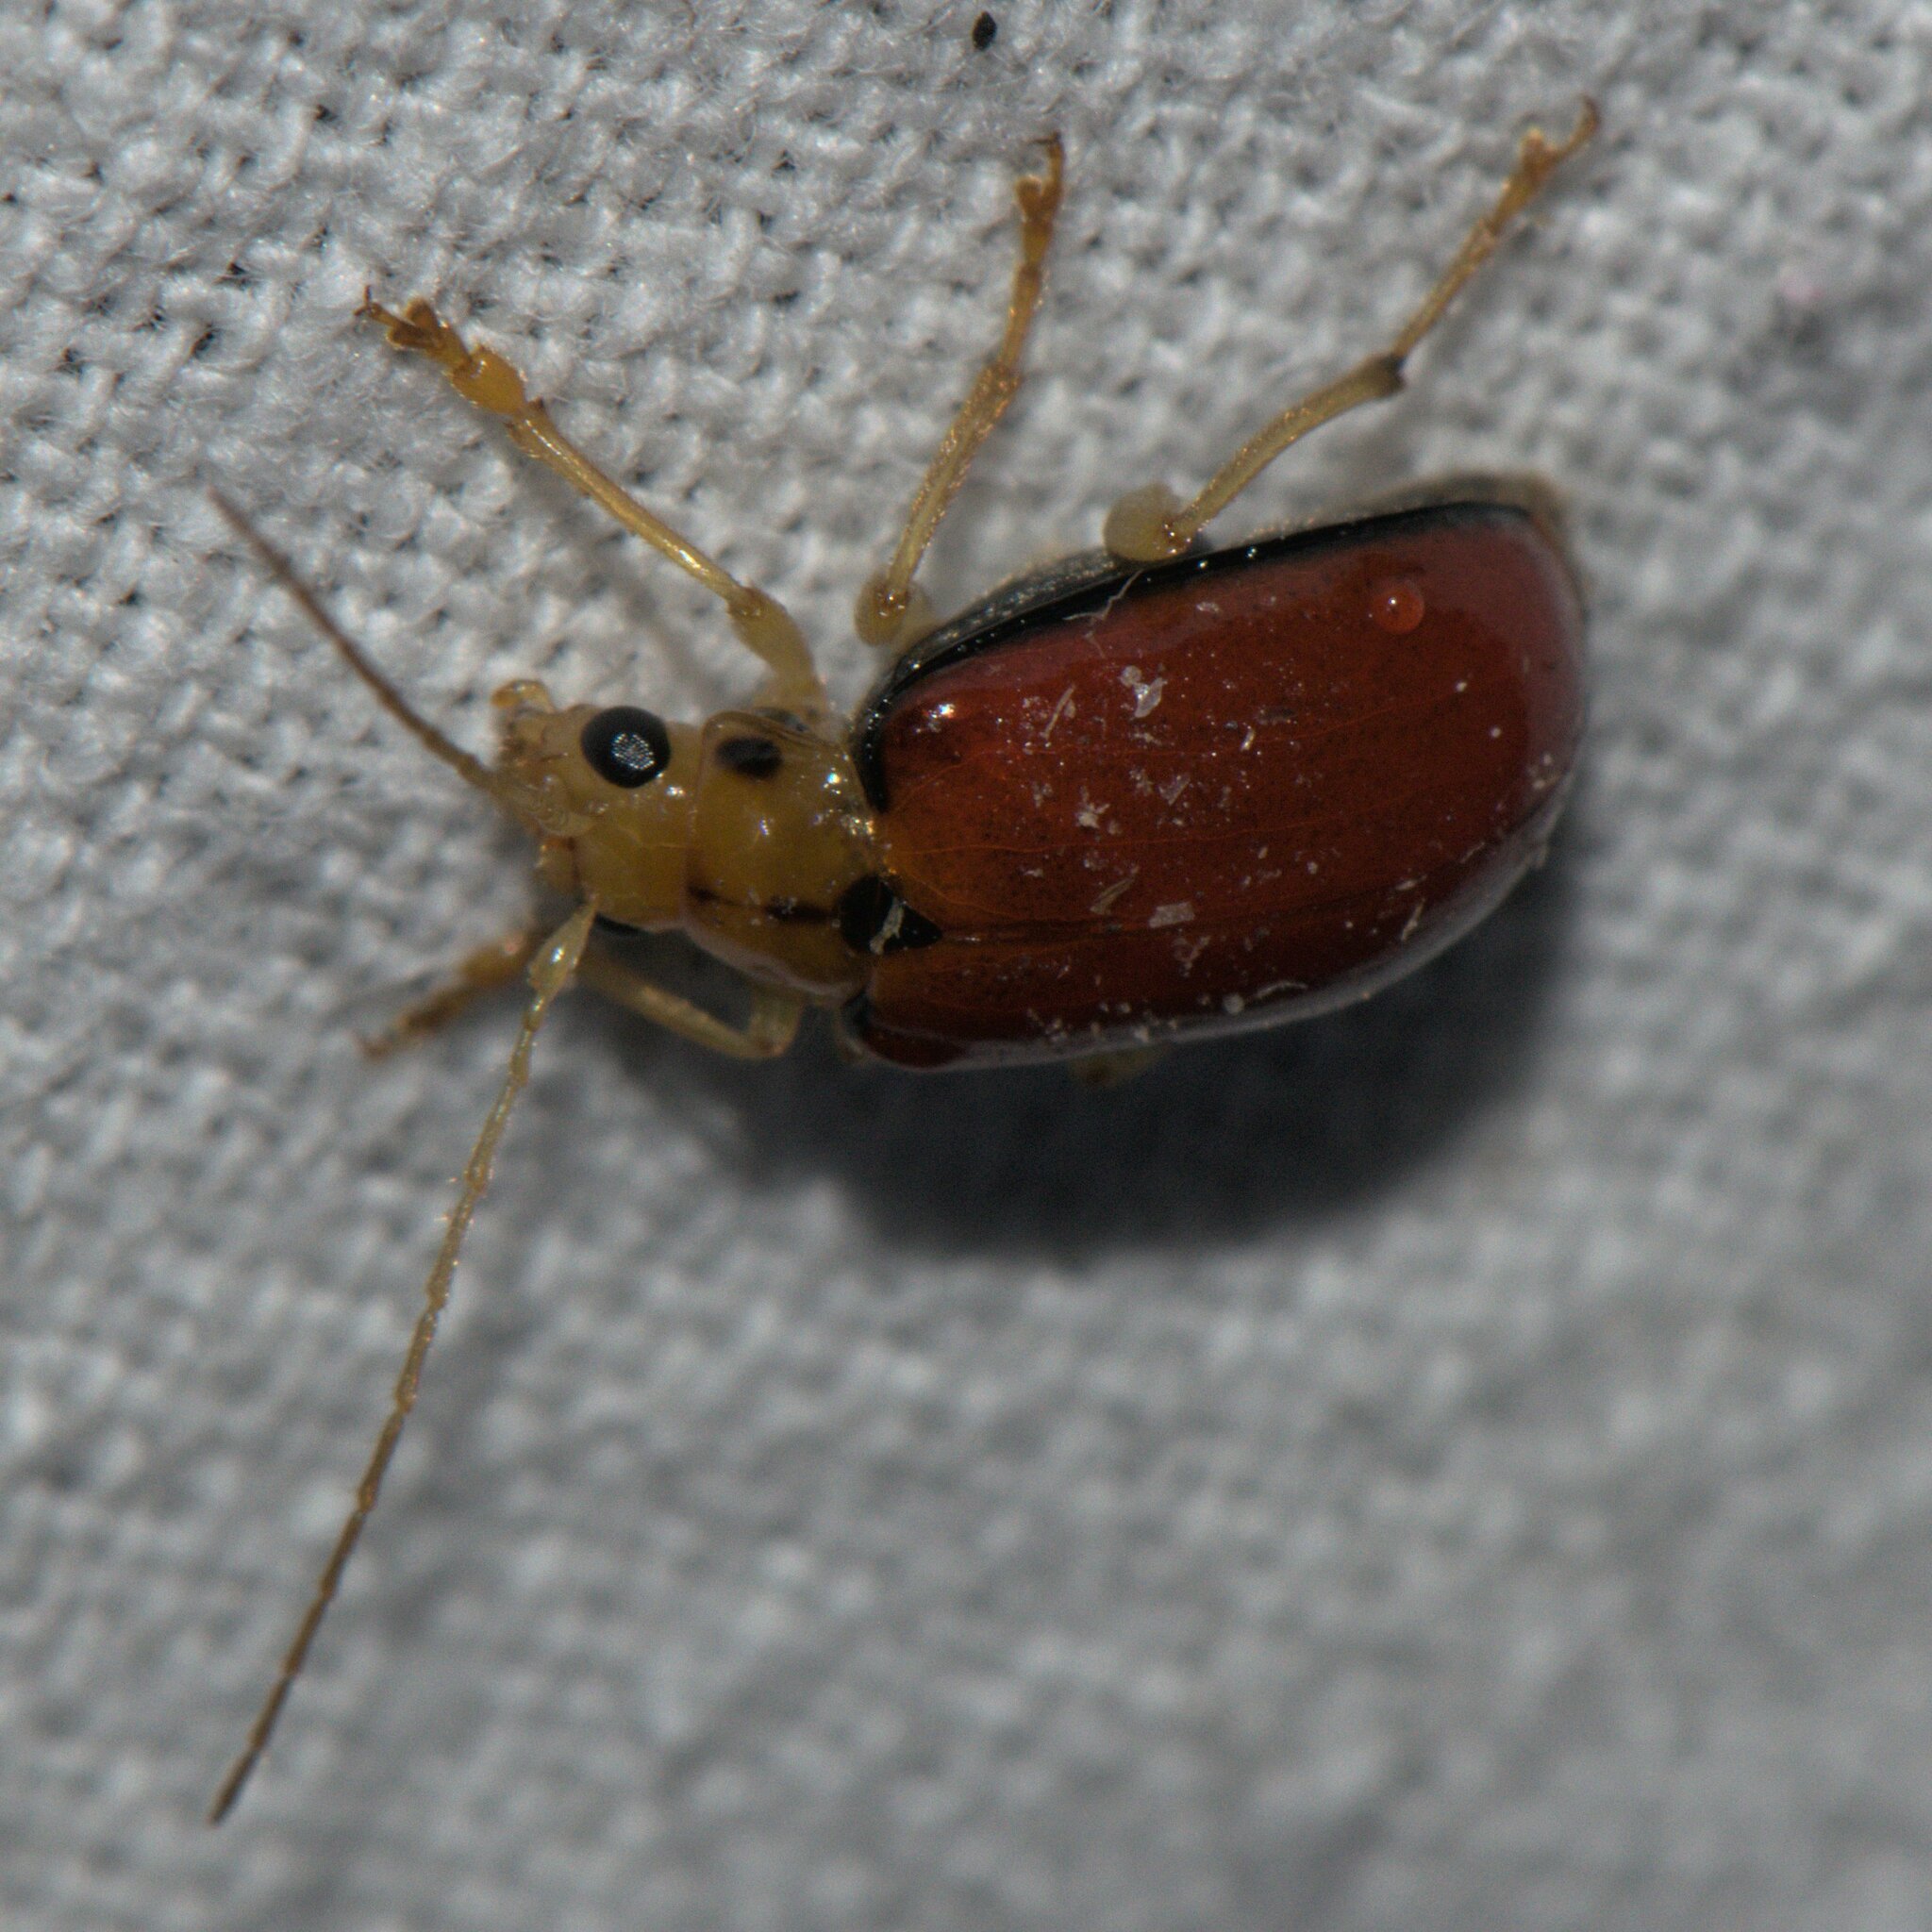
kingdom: Animalia
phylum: Arthropoda
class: Insecta
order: Coleoptera
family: Chrysomelidae
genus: Macrima
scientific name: Macrima
